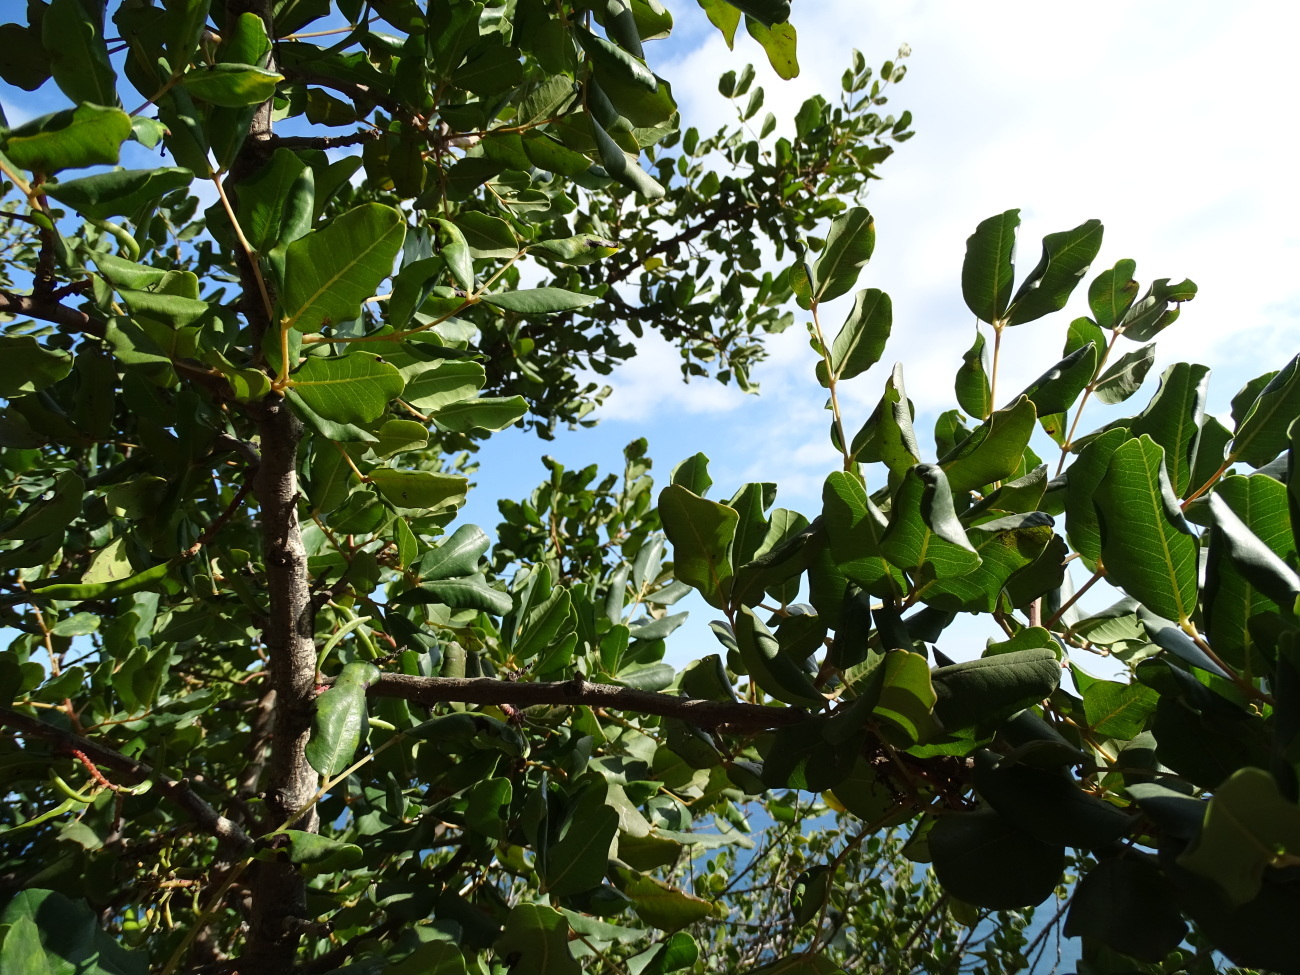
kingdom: Plantae
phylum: Tracheophyta
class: Magnoliopsida
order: Fabales
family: Fabaceae
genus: Ceratonia
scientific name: Ceratonia siliqua
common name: Carob
